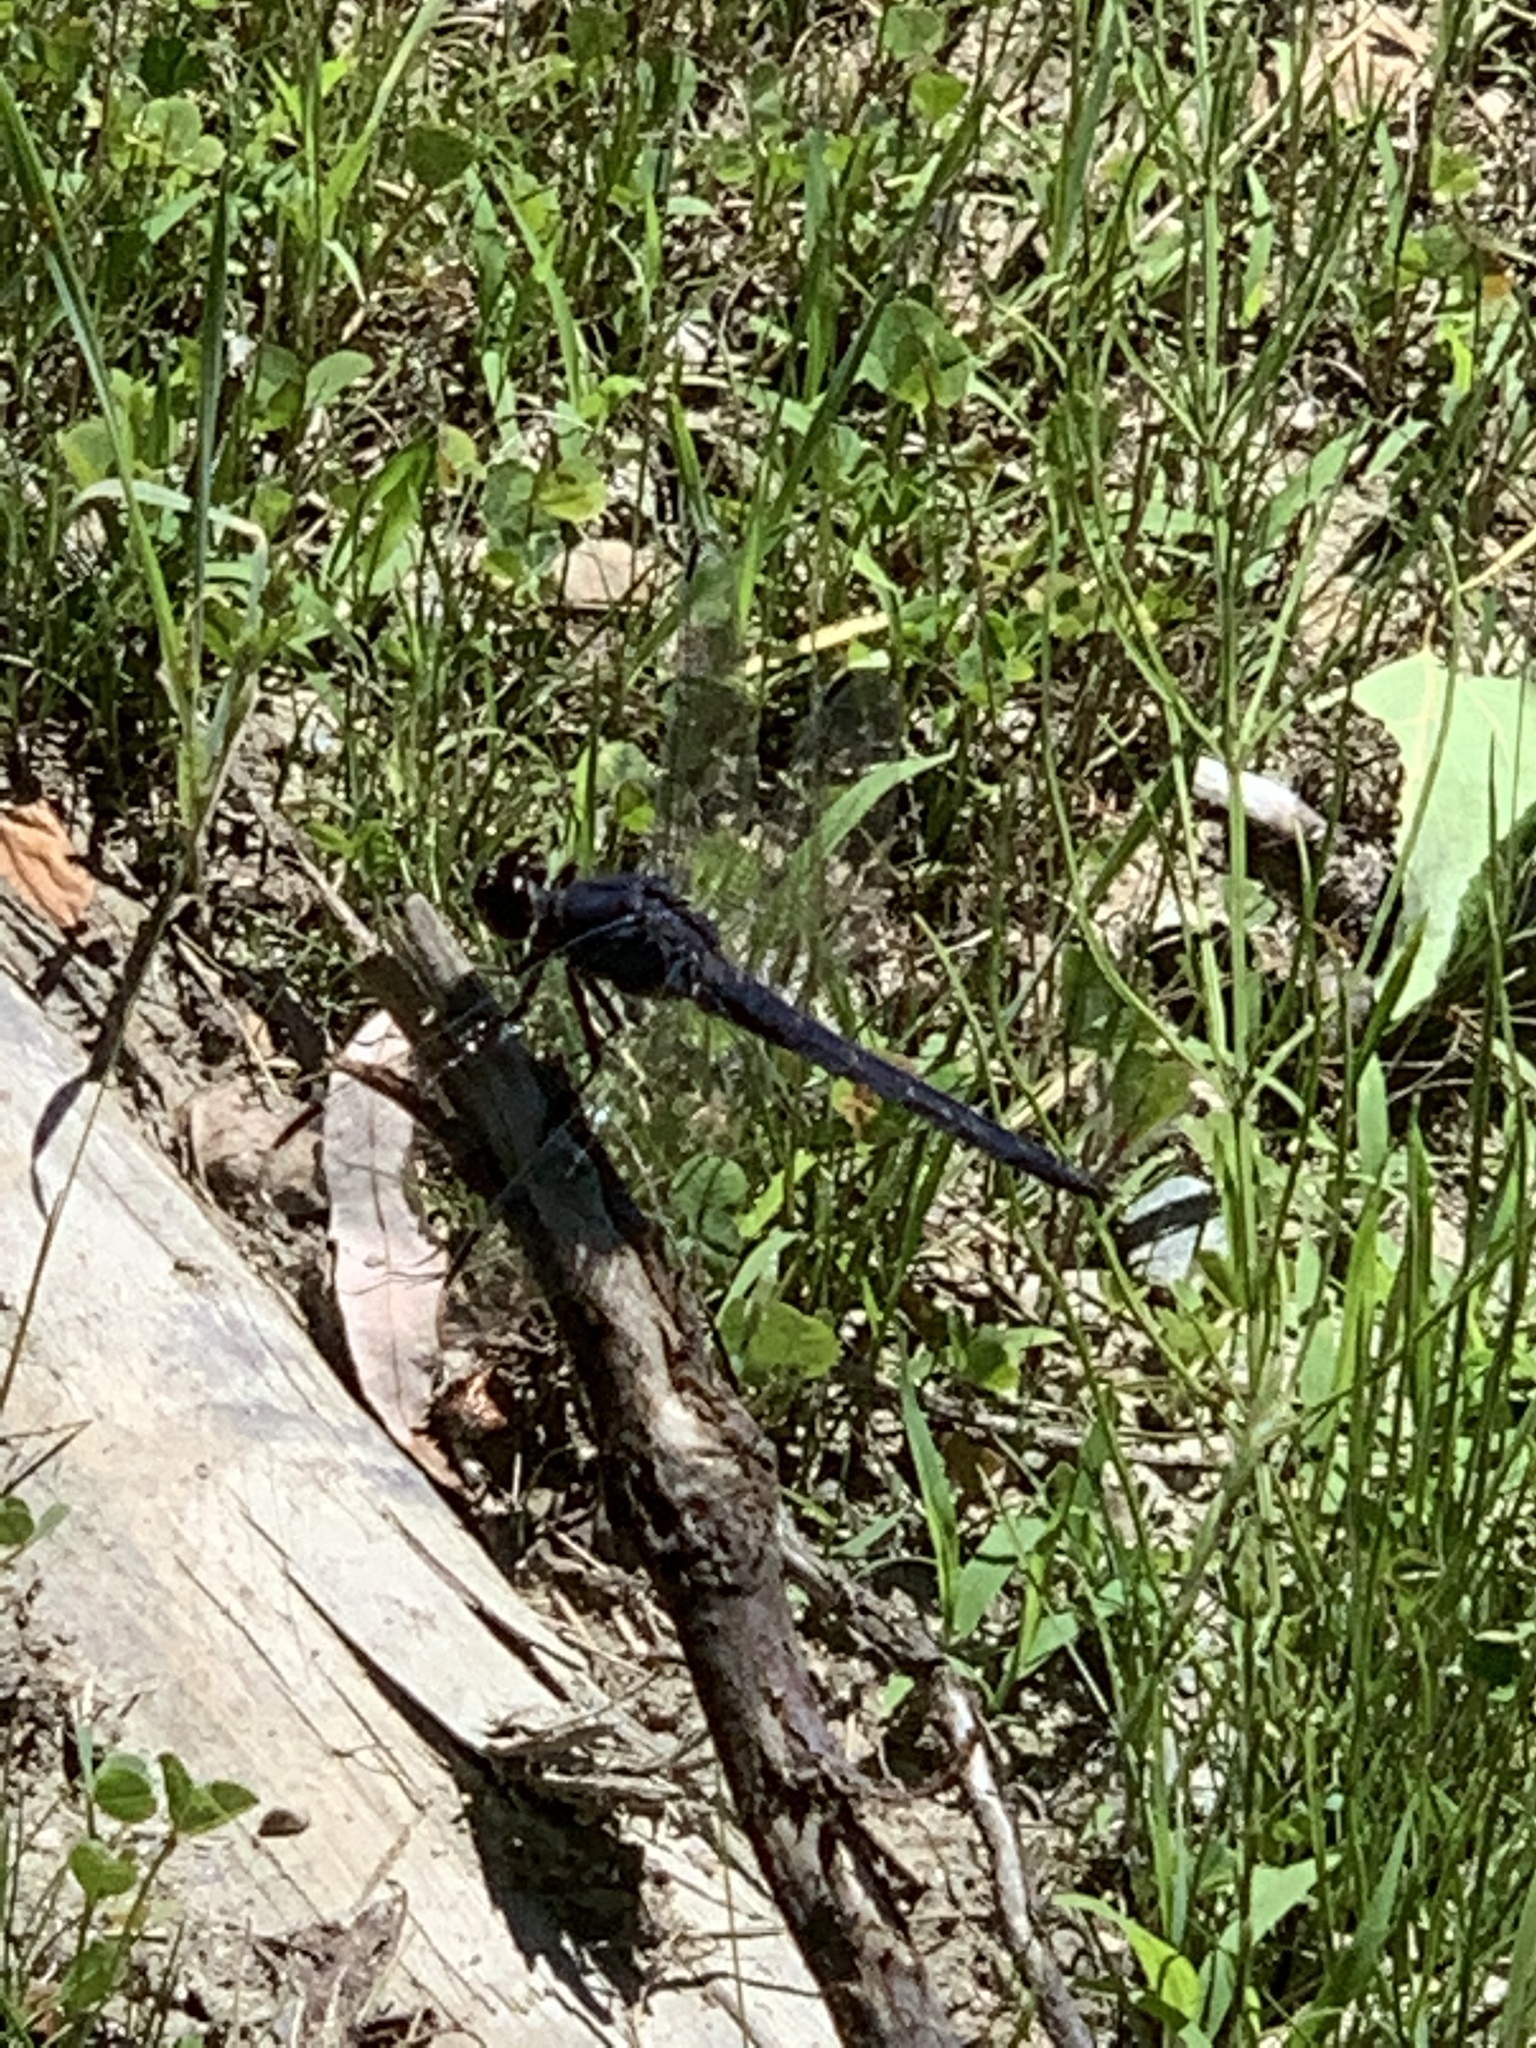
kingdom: Animalia
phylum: Arthropoda
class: Insecta
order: Odonata
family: Libellulidae
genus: Libellula
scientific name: Libellula incesta
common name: Slaty skimmer
